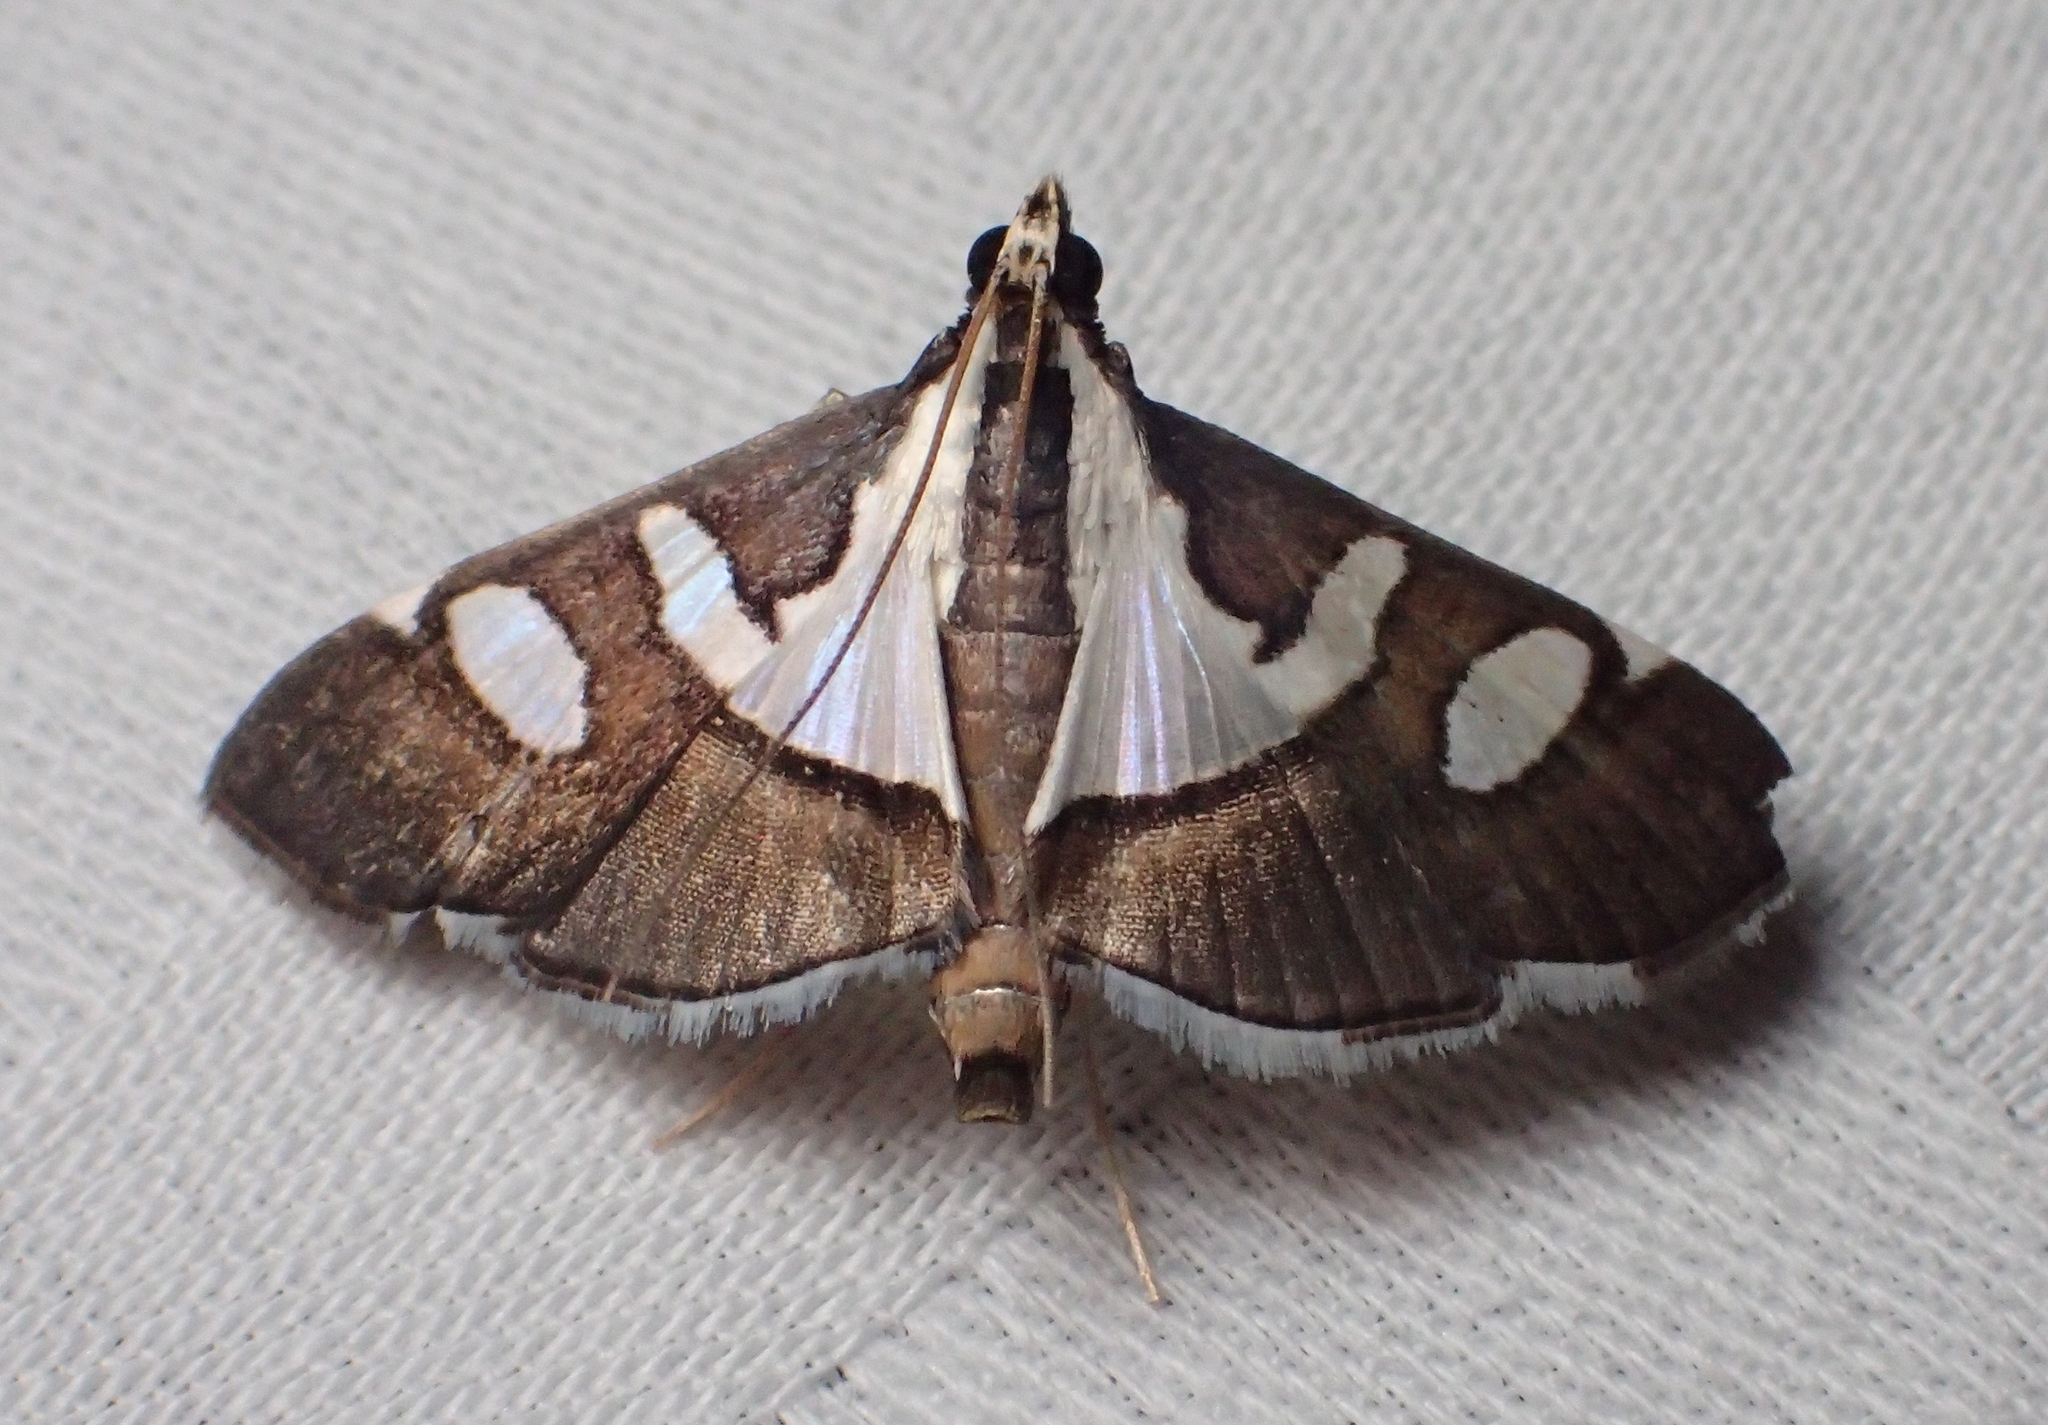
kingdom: Animalia
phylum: Arthropoda
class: Insecta
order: Lepidoptera
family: Crambidae
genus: Glyphodes
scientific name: Glyphodes bicolor
